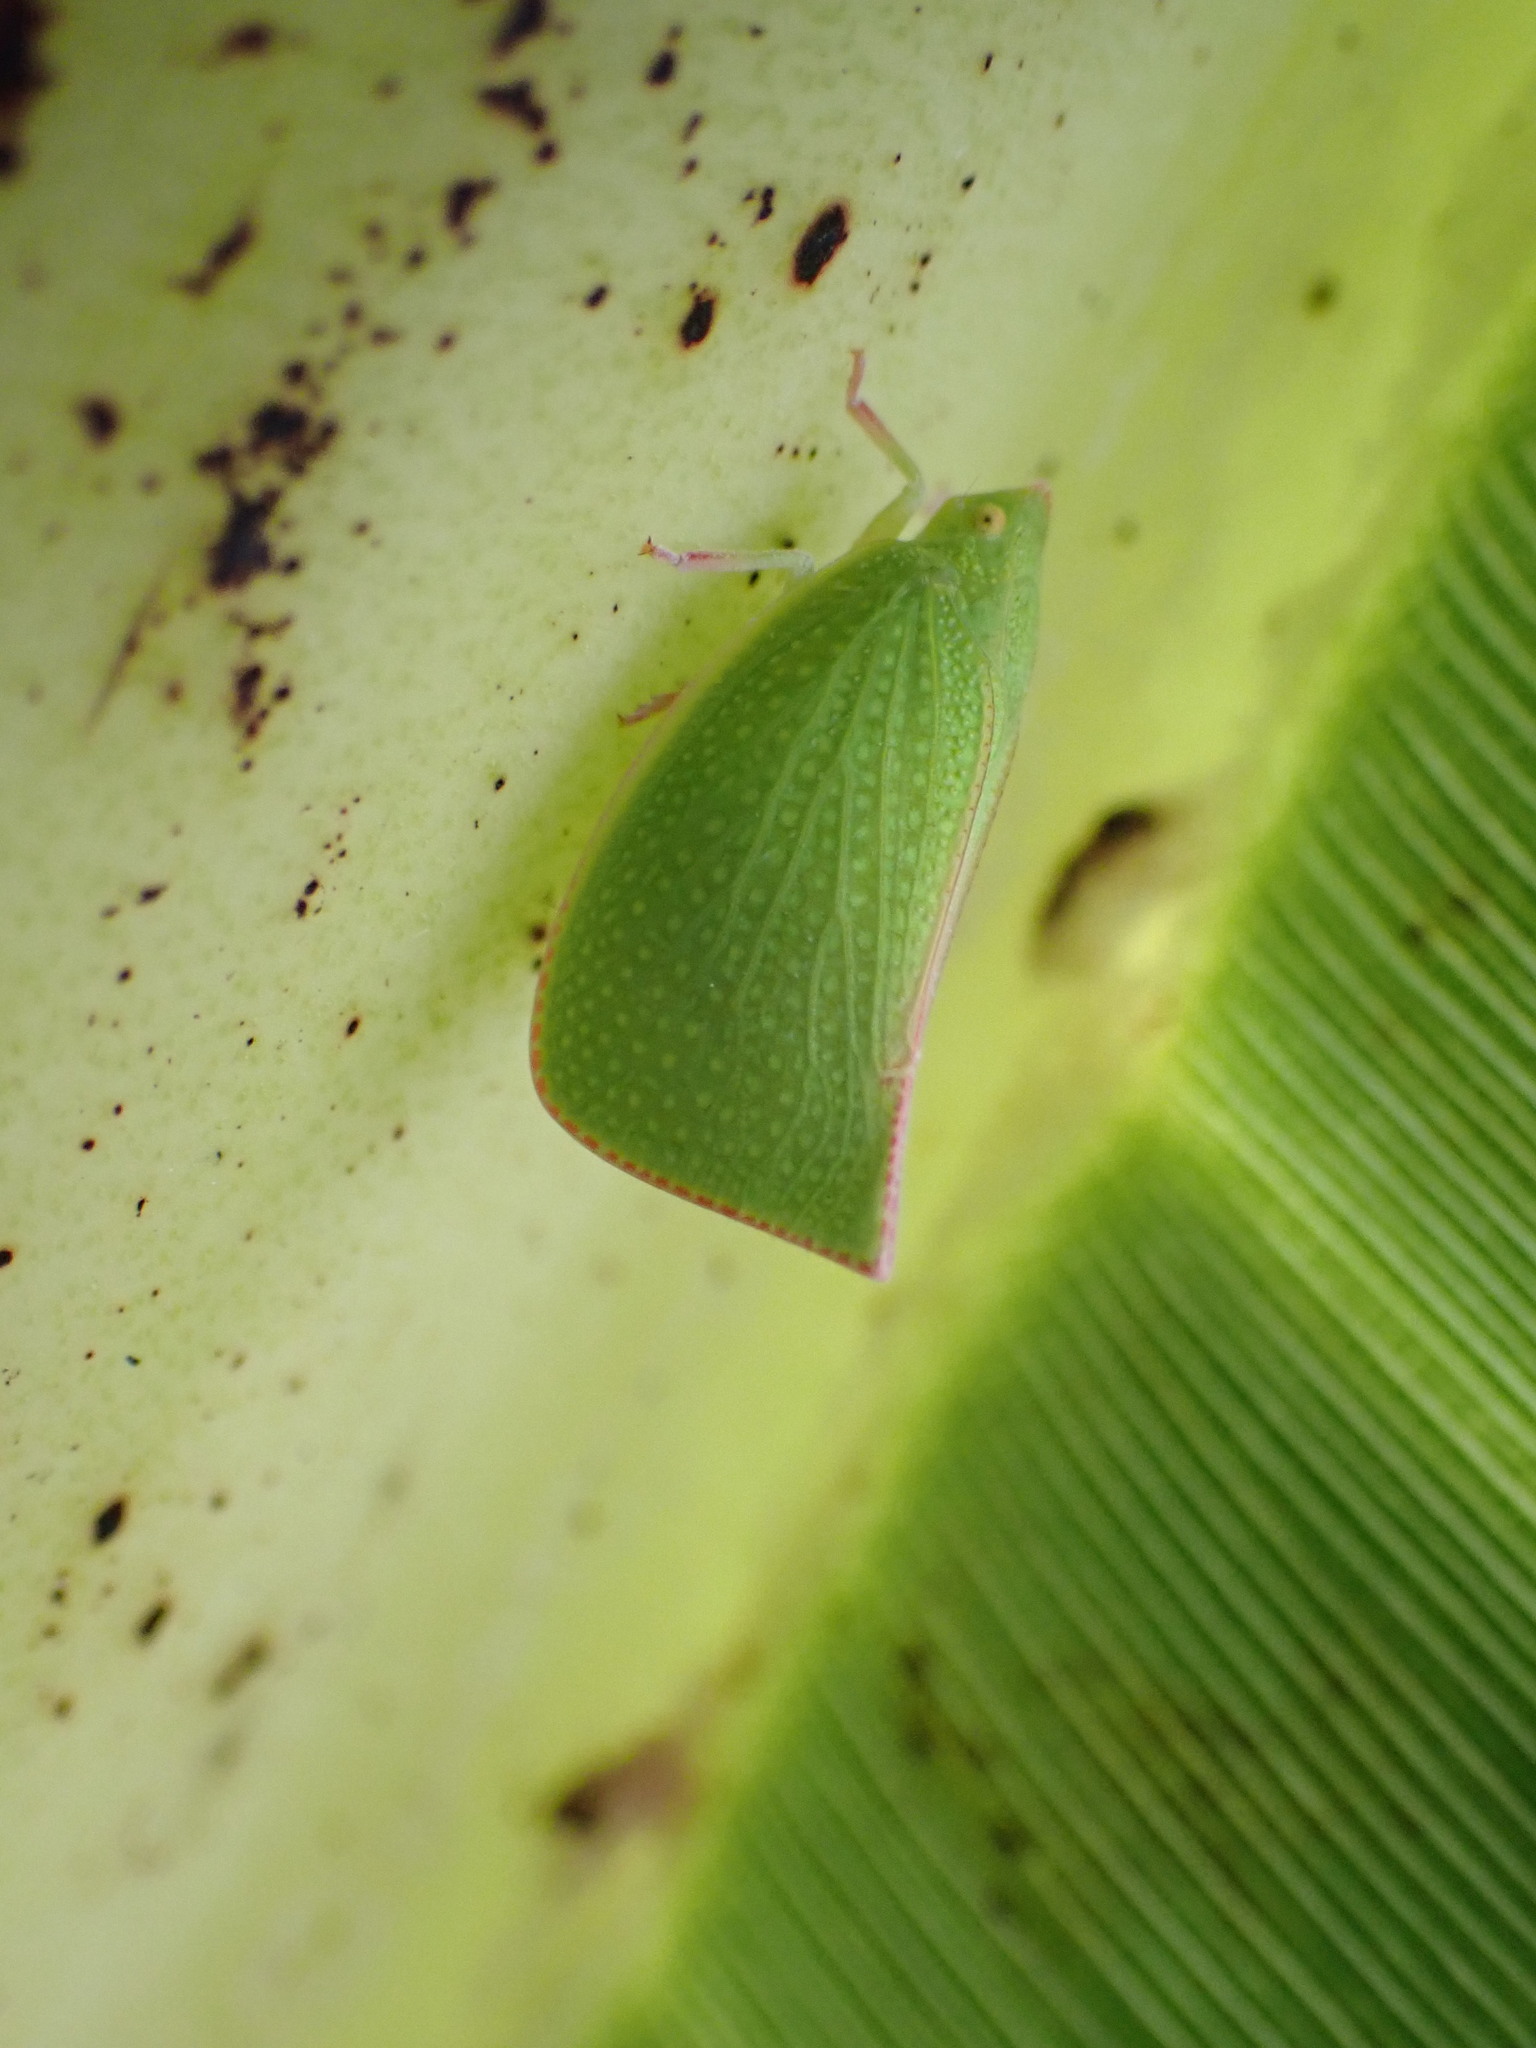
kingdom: Animalia
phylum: Arthropoda
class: Insecta
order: Hemiptera
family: Flatidae
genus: Siphanta
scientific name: Siphanta acuta
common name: Torpedo bug
